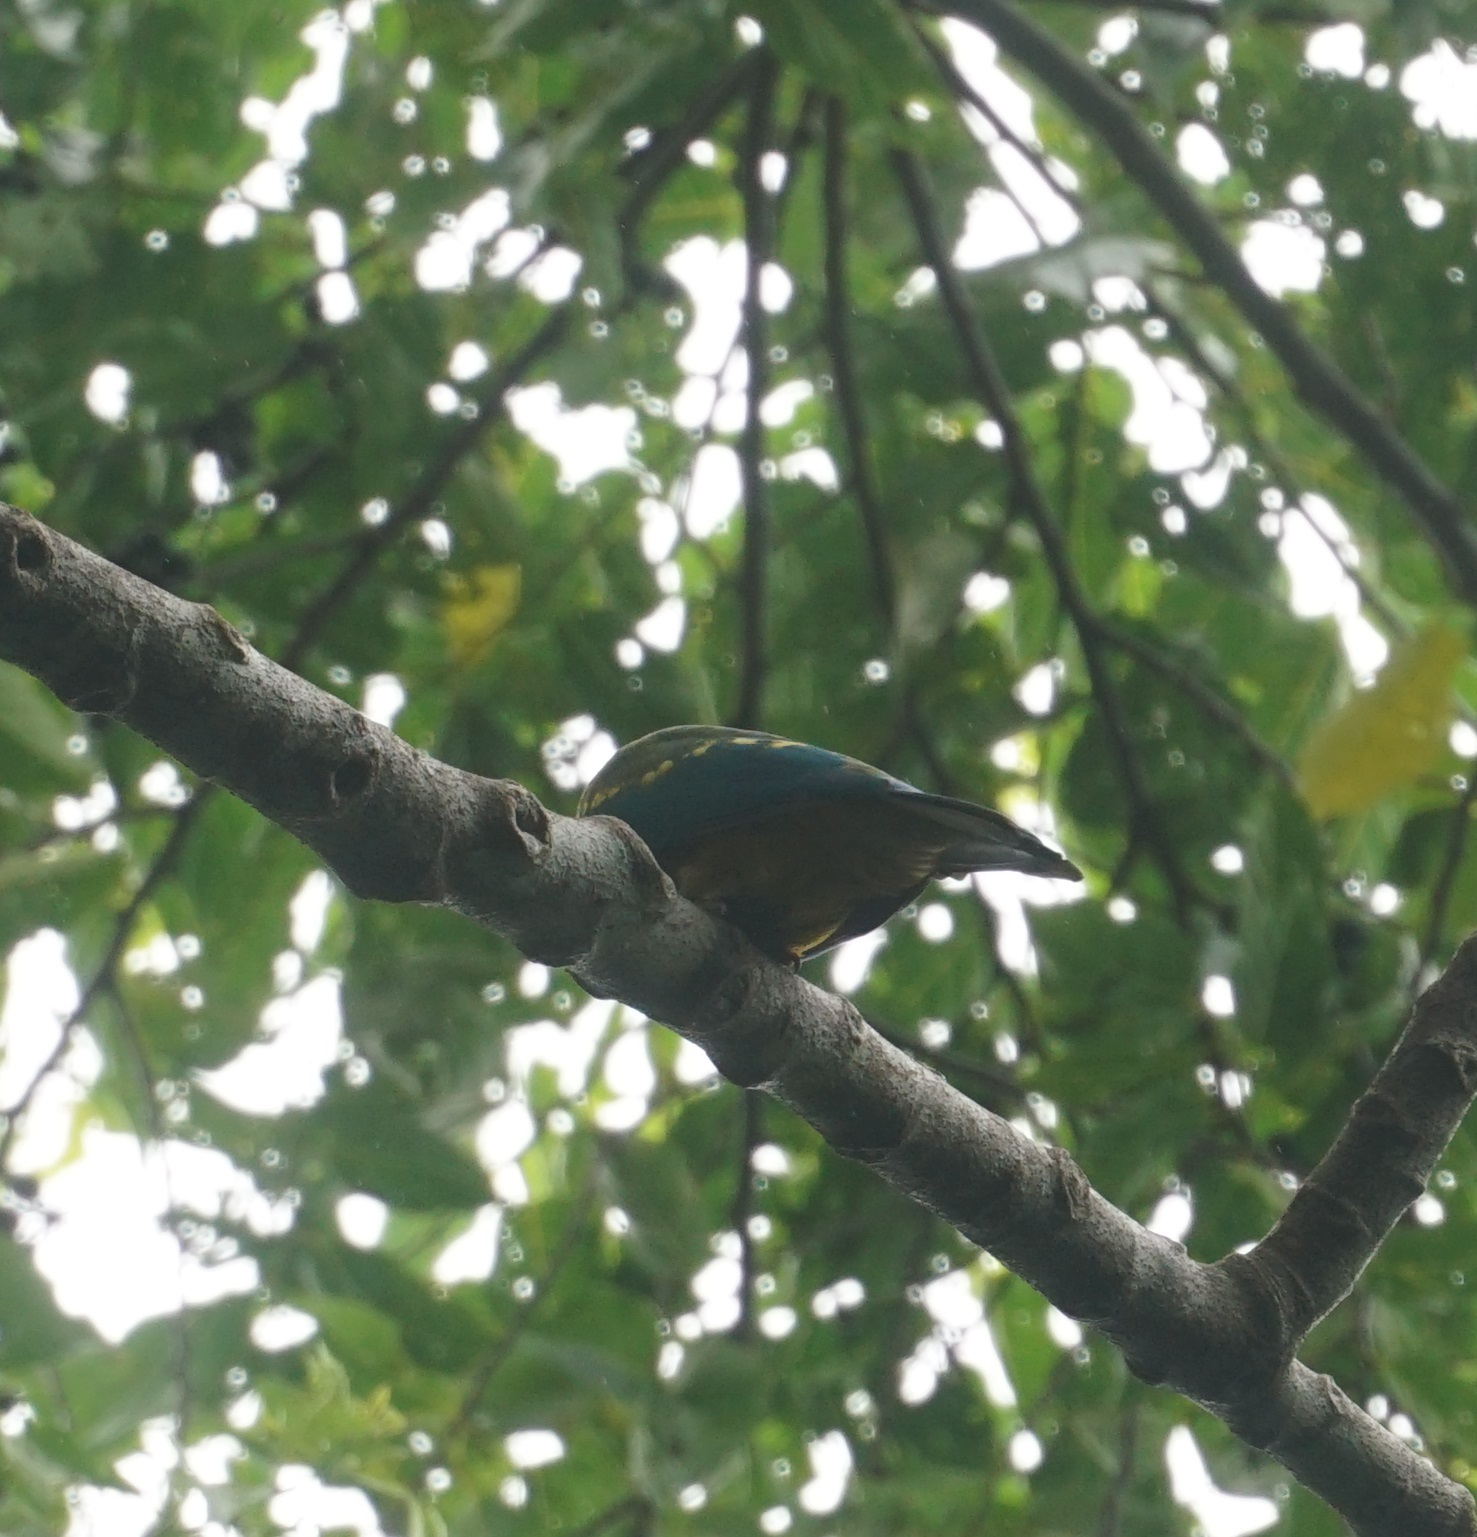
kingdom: Animalia
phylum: Chordata
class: Aves
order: Columbiformes
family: Columbidae
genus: Ptilinopus
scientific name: Ptilinopus magnificus
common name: Wompoo fruit dove
